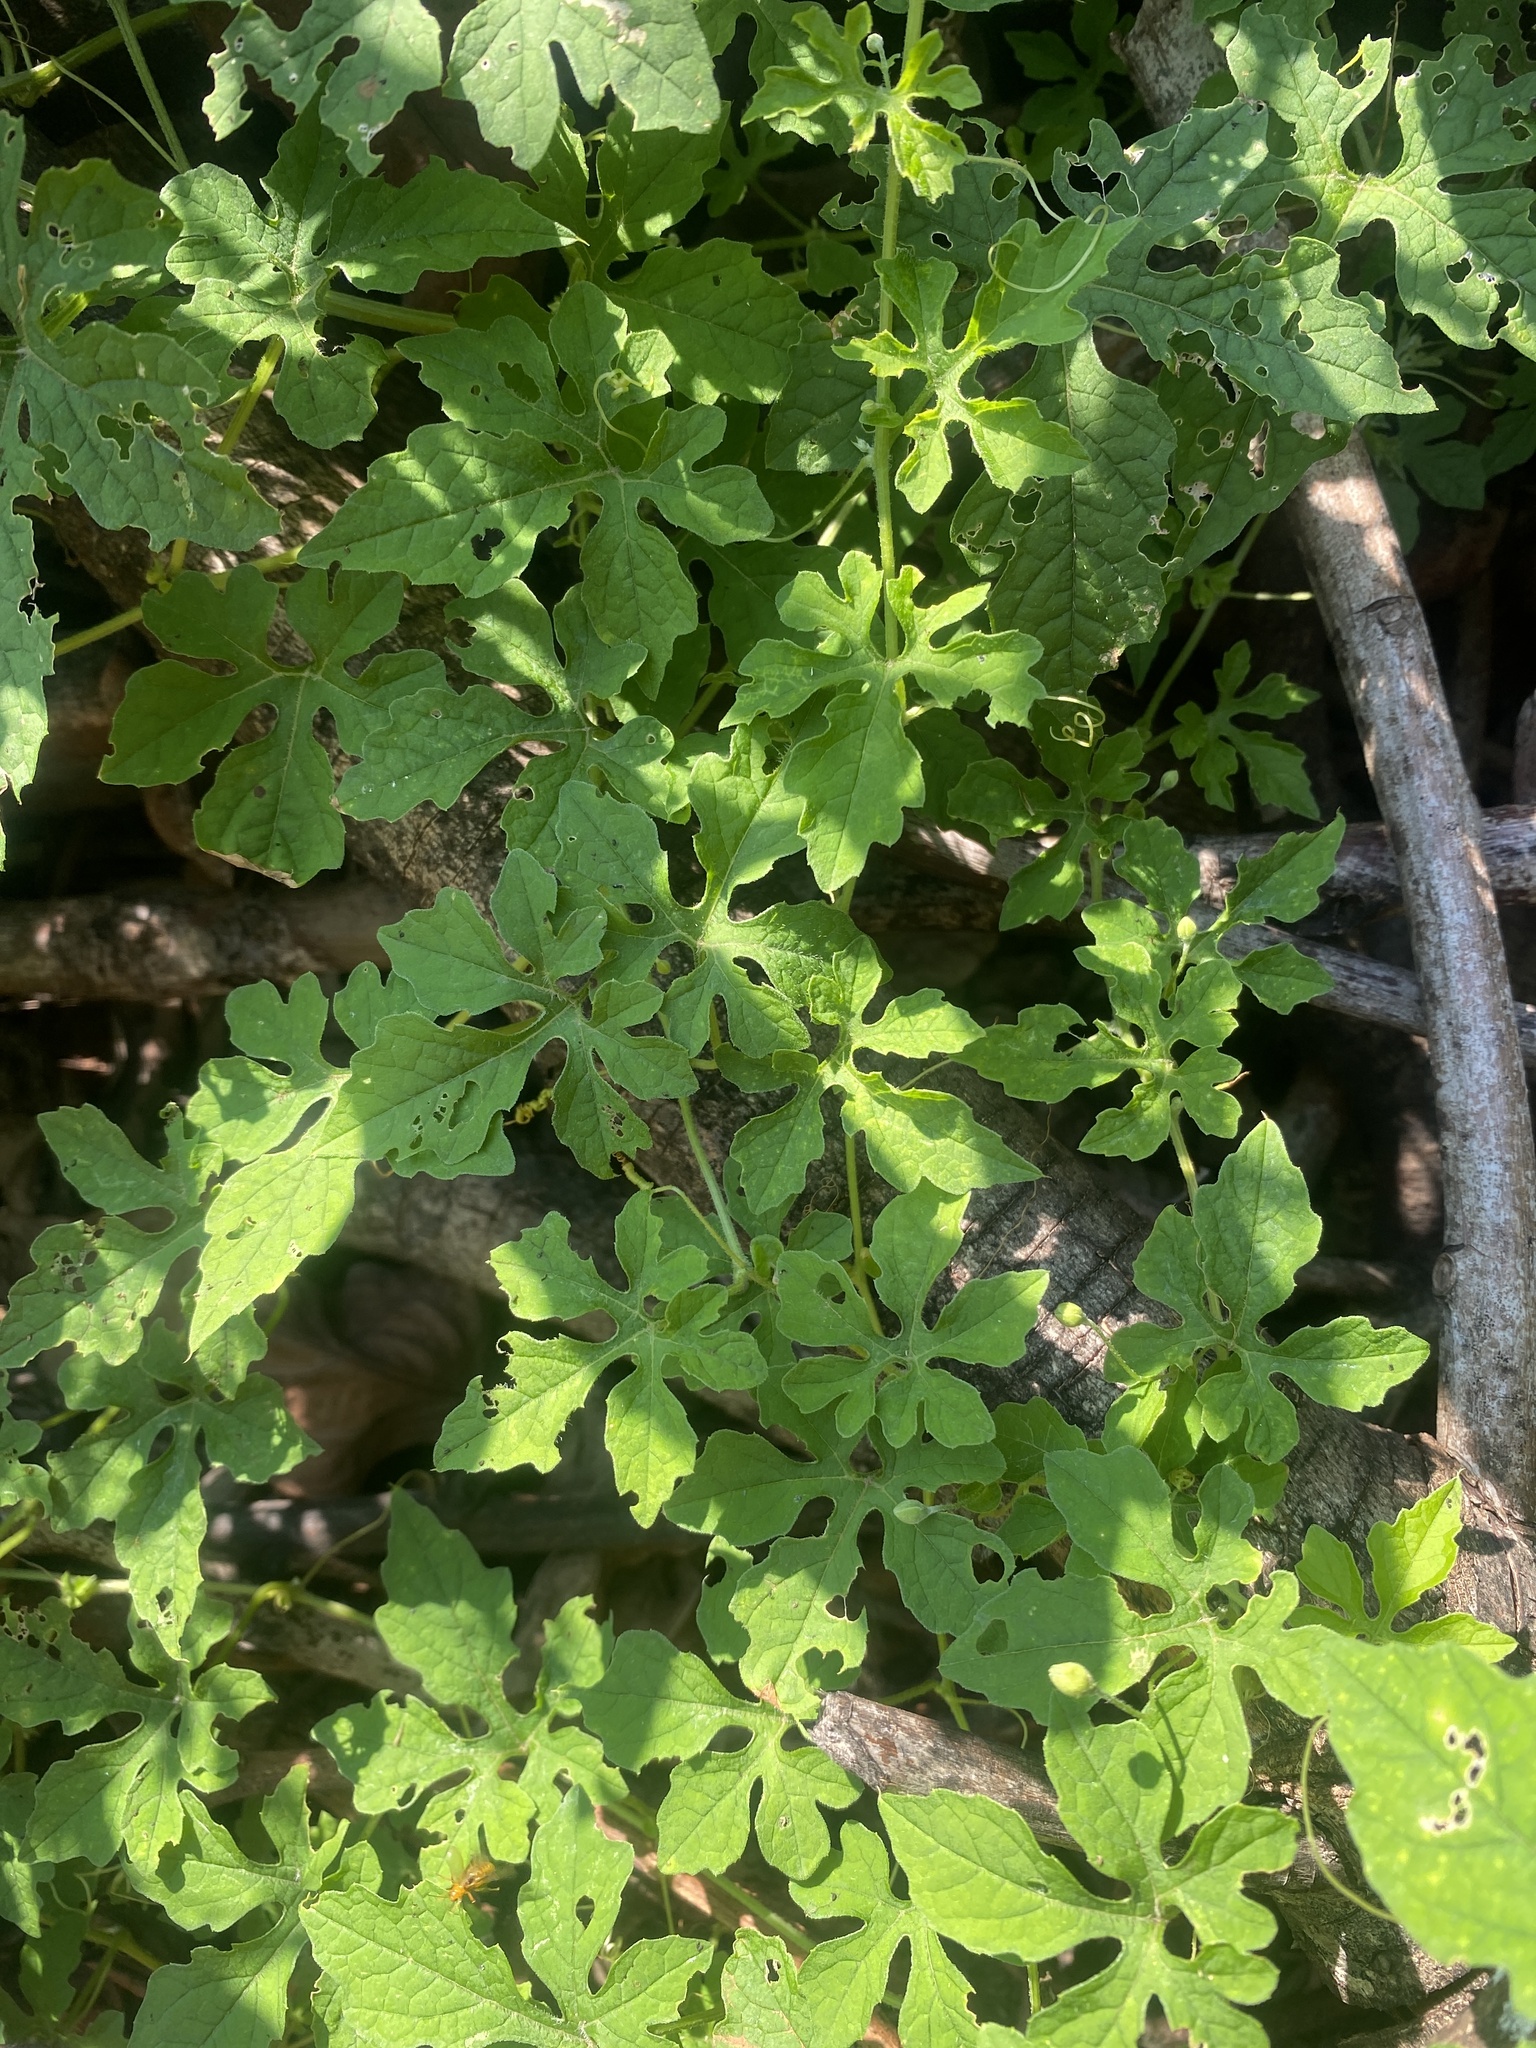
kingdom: Plantae
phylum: Tracheophyta
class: Magnoliopsida
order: Cucurbitales
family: Cucurbitaceae
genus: Momordica
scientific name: Momordica charantia
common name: Balsampear
